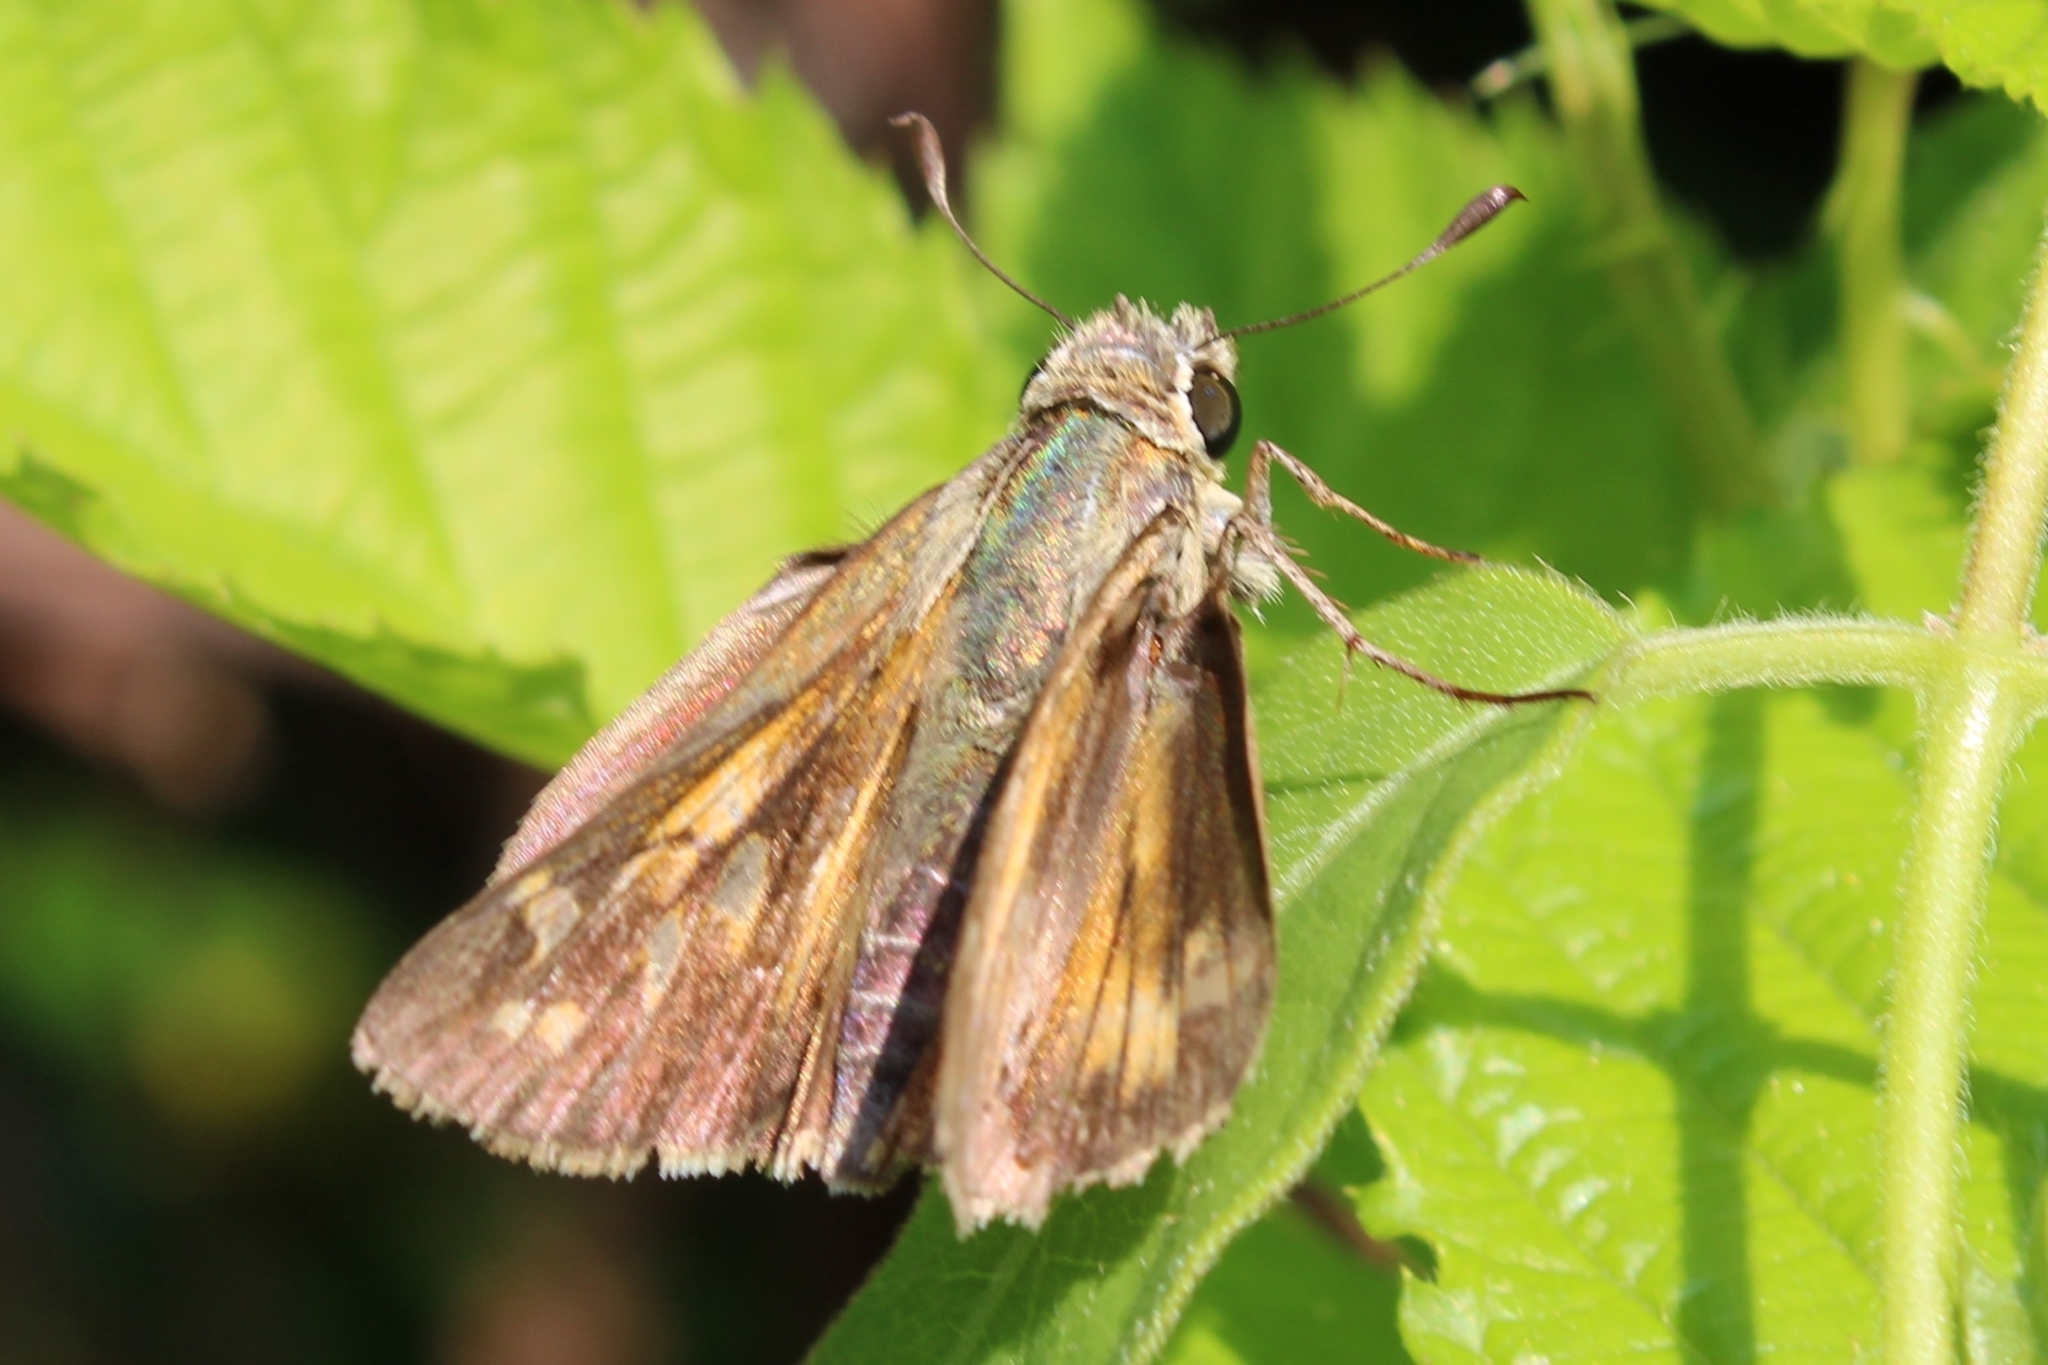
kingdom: Animalia
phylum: Arthropoda
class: Insecta
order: Lepidoptera
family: Hesperiidae
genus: Atalopedes
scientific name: Atalopedes
